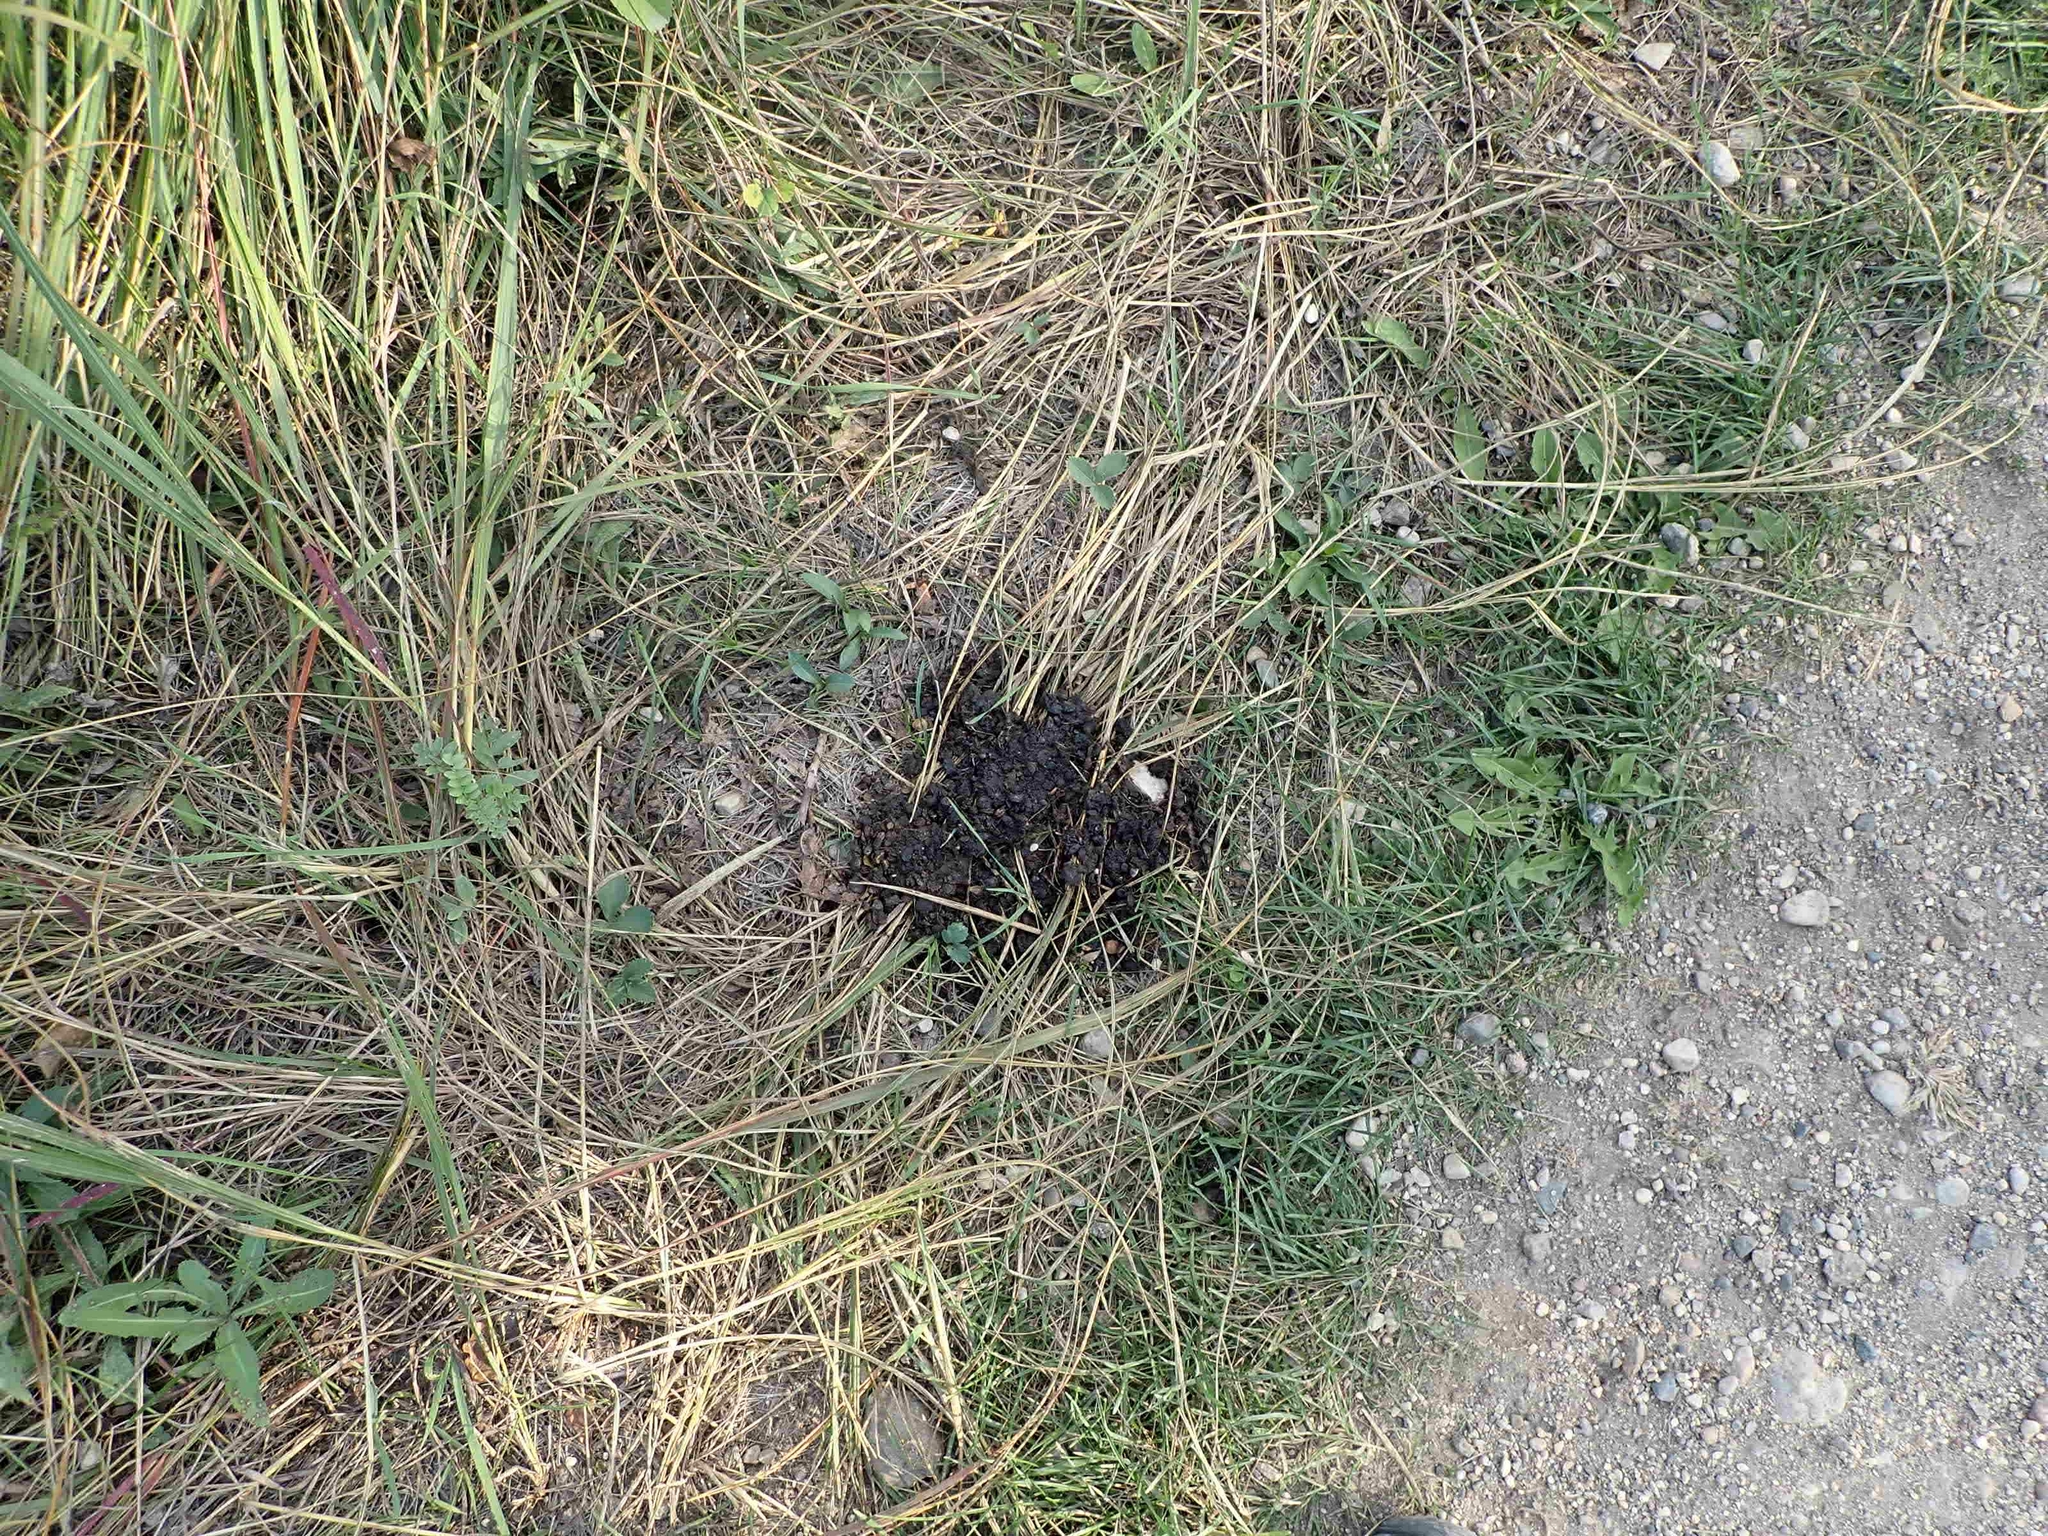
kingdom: Animalia
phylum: Chordata
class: Mammalia
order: Carnivora
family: Ursidae
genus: Ursus
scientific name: Ursus americanus
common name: American black bear
